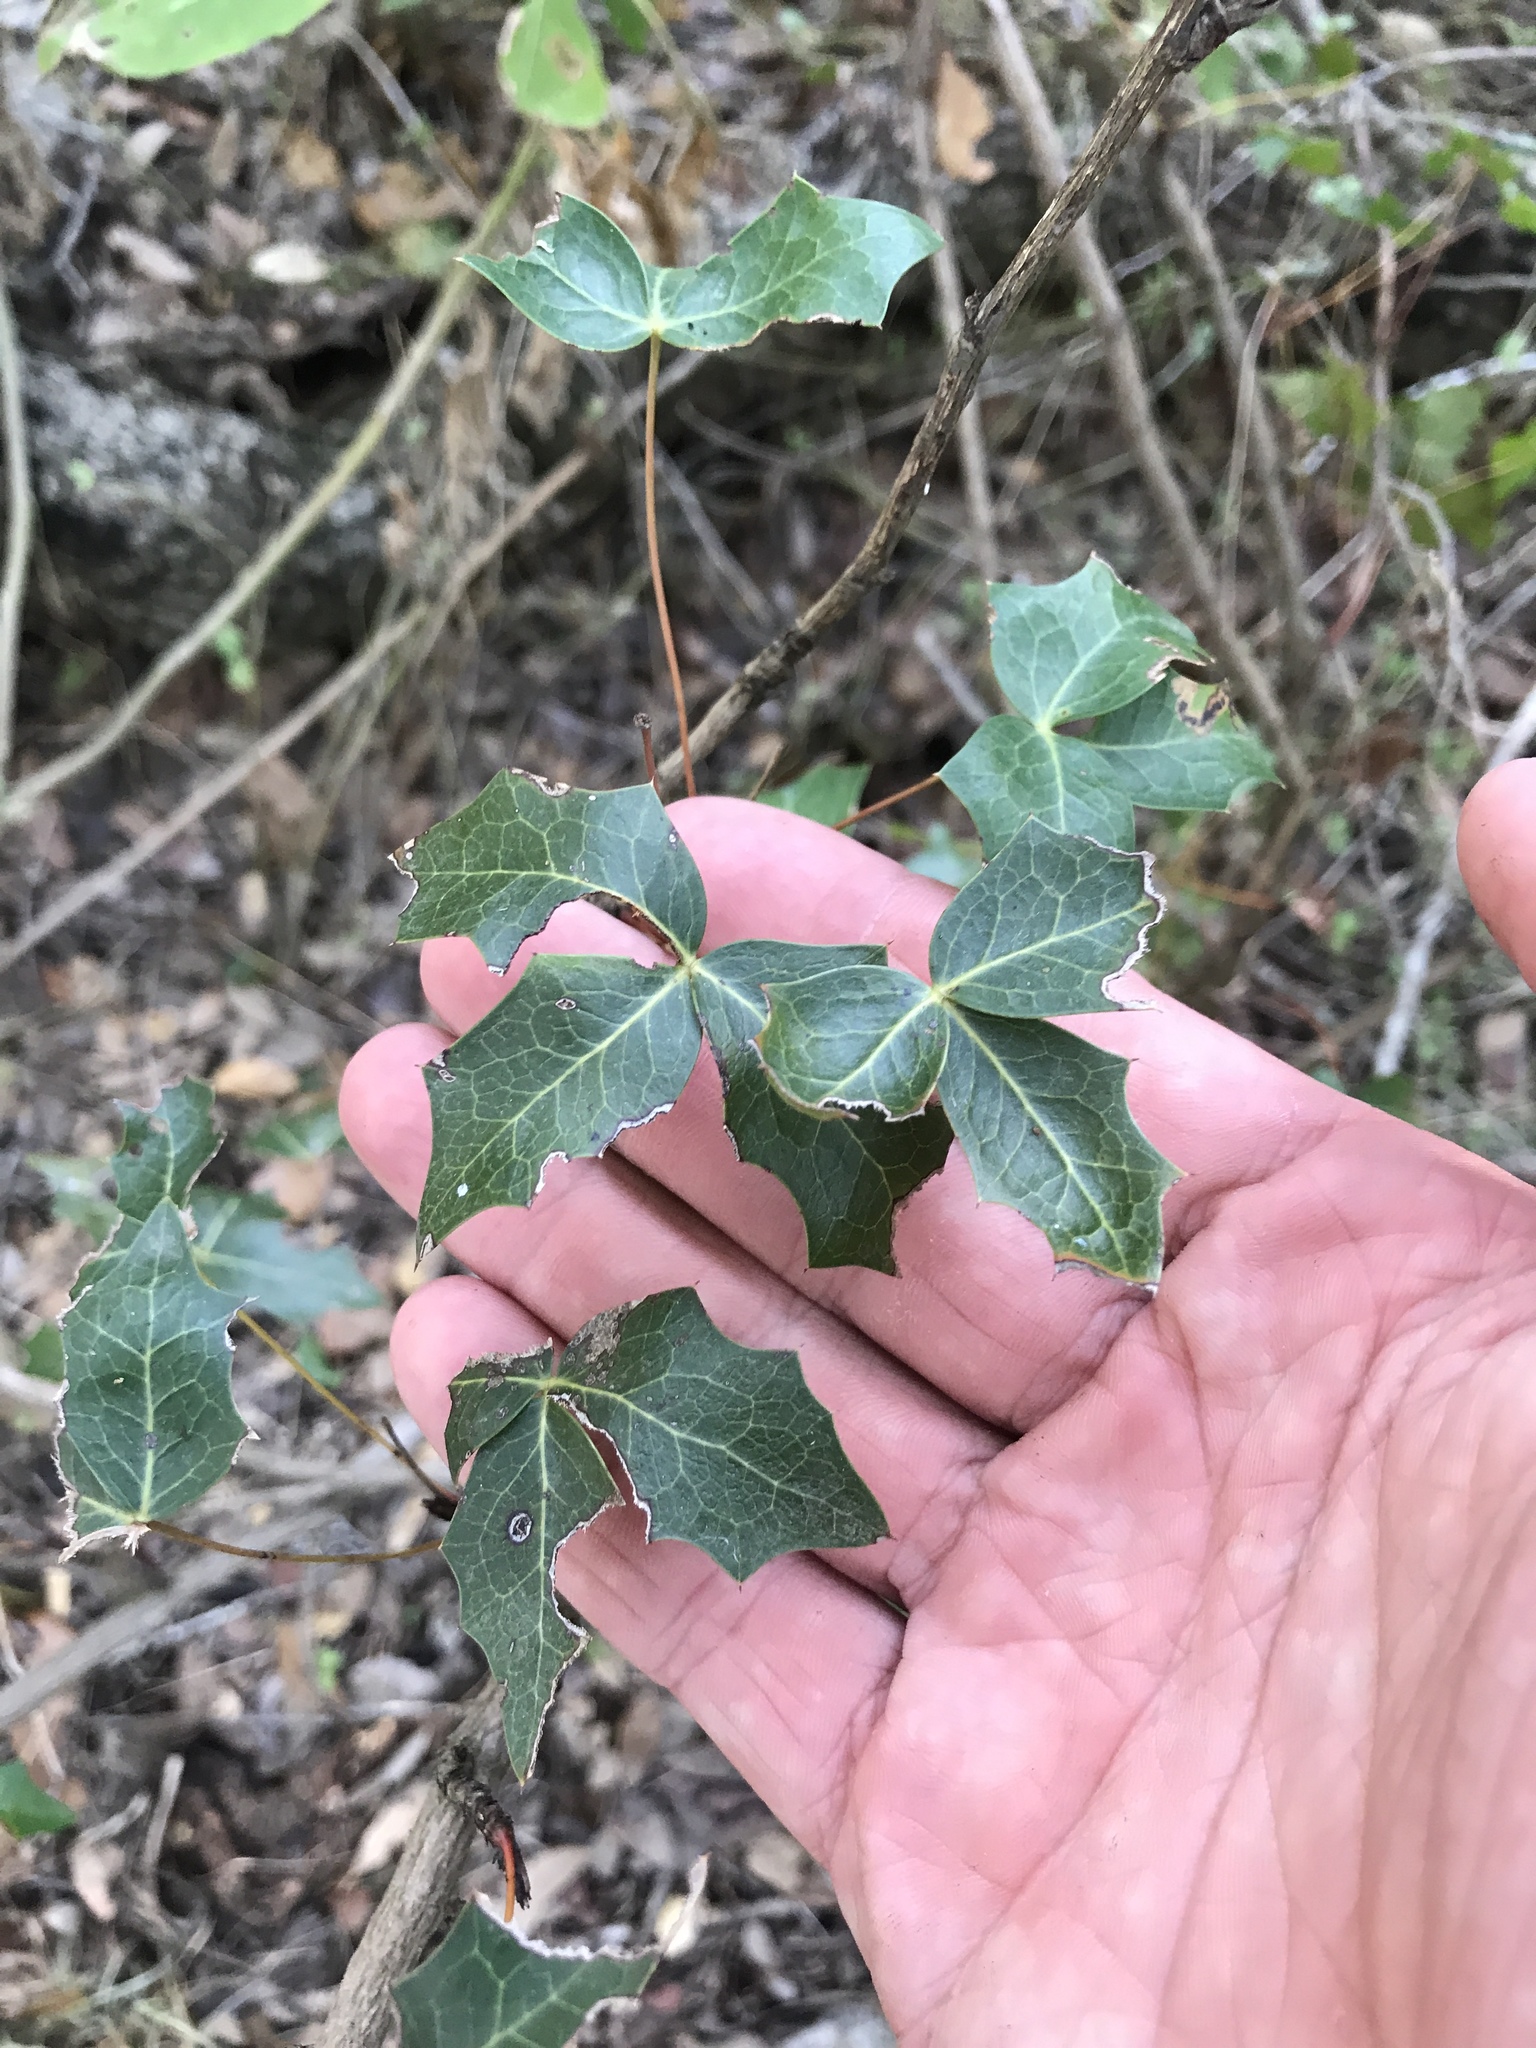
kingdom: Plantae
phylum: Tracheophyta
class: Magnoliopsida
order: Ranunculales
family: Berberidaceae
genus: Alloberberis
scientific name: Alloberberis trifoliolata
